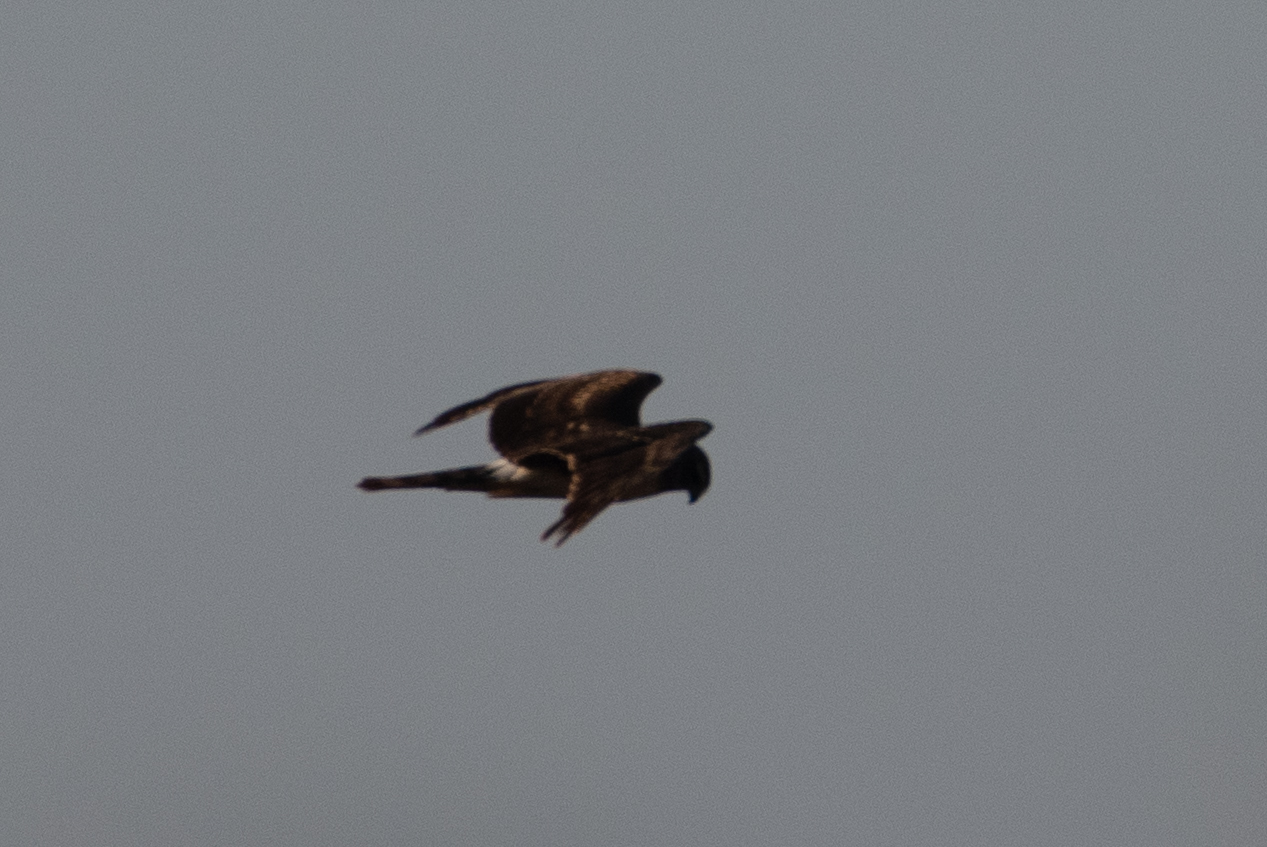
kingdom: Animalia
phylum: Chordata
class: Aves
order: Accipitriformes
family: Accipitridae
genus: Circus
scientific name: Circus cyaneus
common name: Hen harrier
